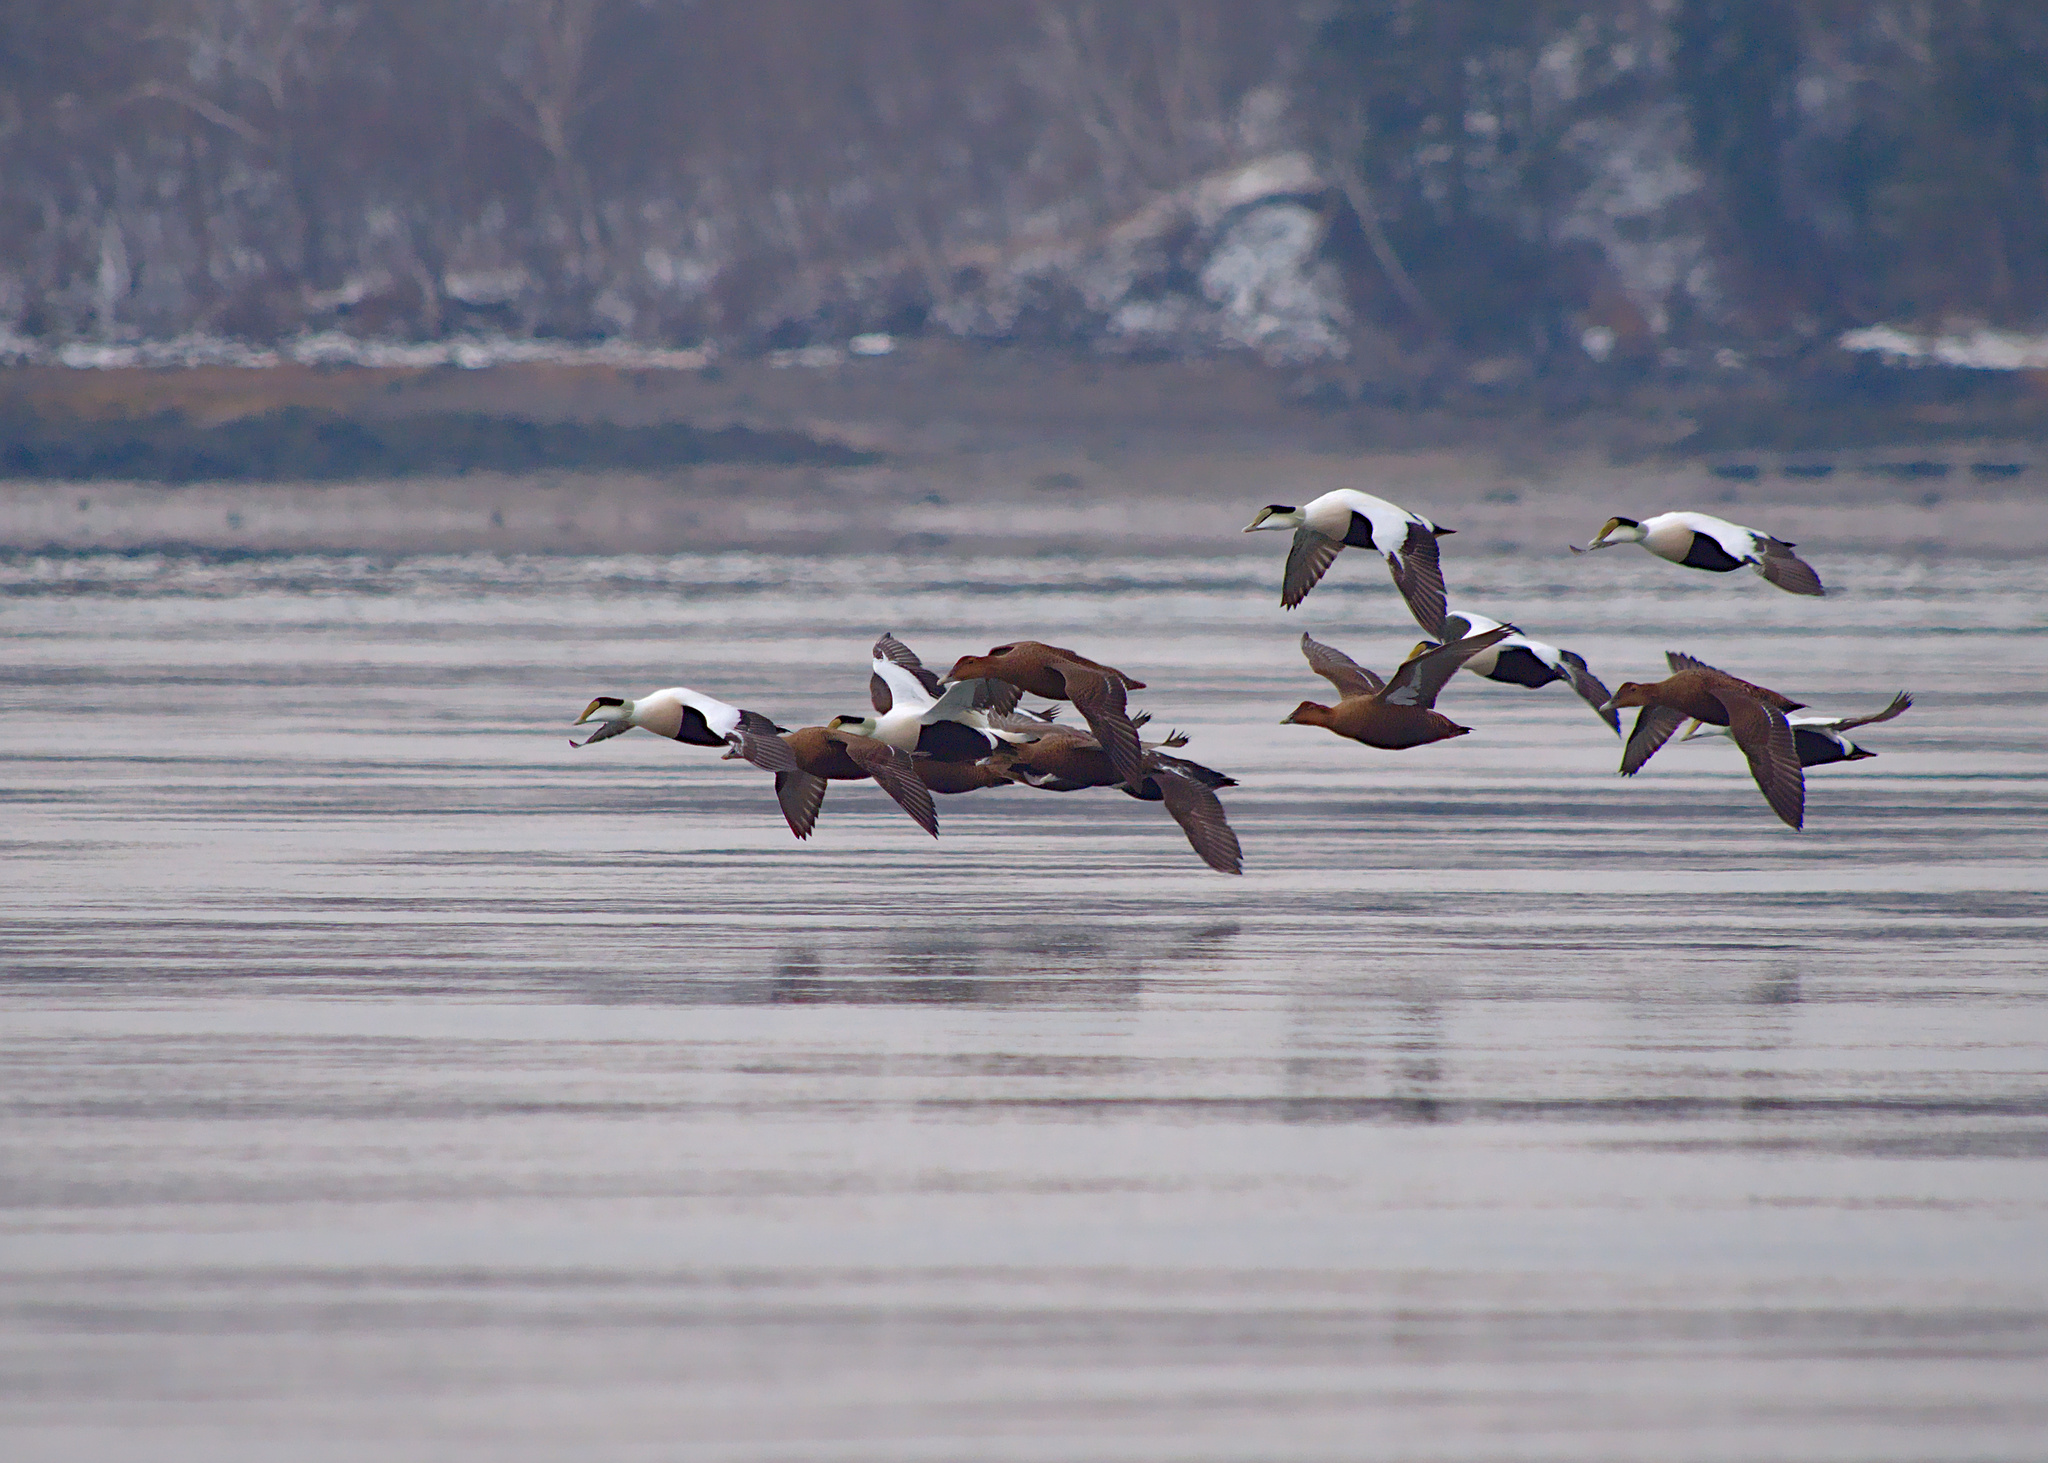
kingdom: Animalia
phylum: Chordata
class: Aves
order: Anseriformes
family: Anatidae
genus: Somateria
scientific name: Somateria mollissima
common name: Common eider
